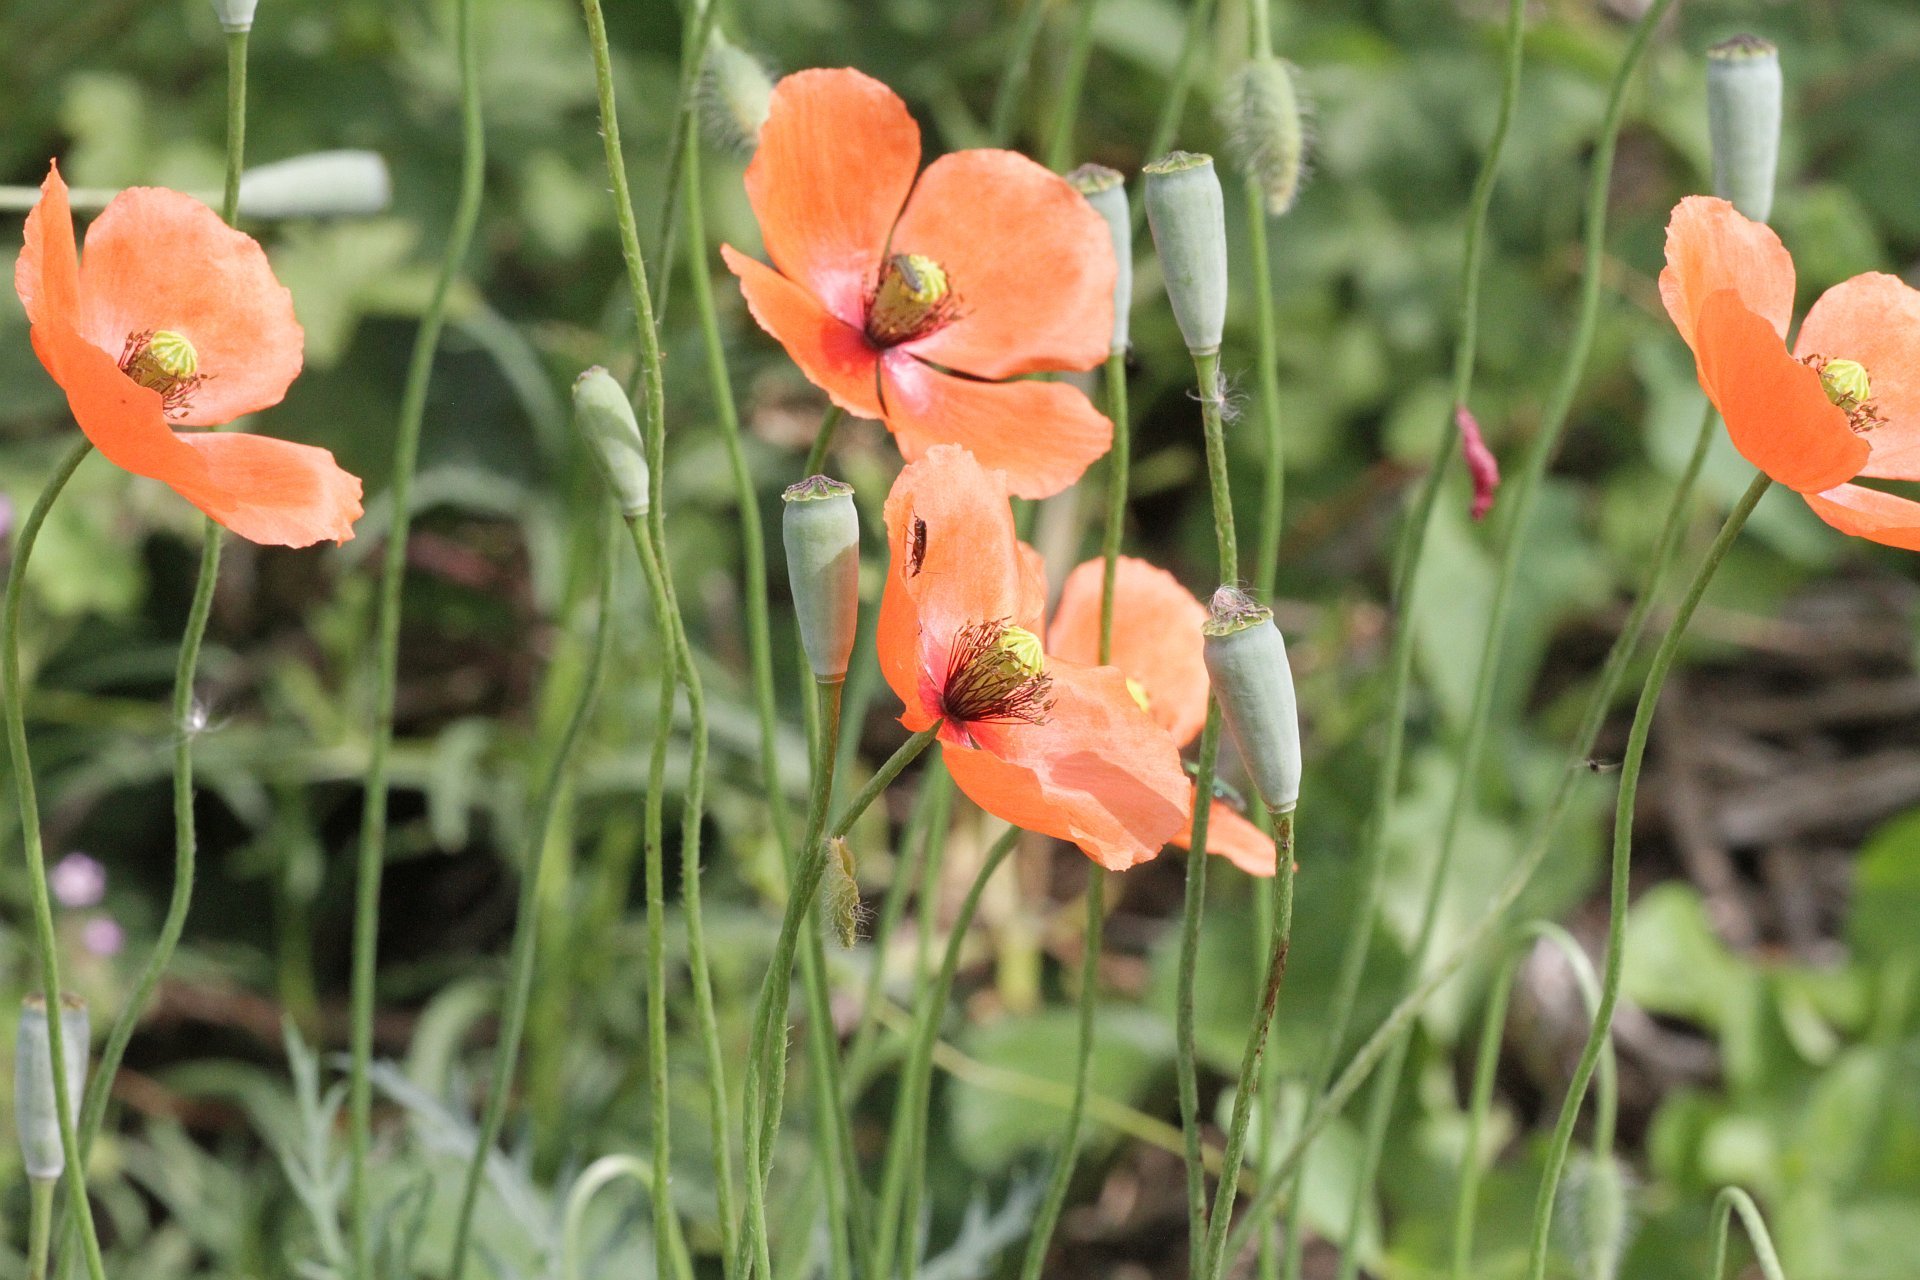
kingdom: Plantae
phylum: Tracheophyta
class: Magnoliopsida
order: Ranunculales
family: Papaveraceae
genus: Papaver
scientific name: Papaver dubium
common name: Long-headed poppy
